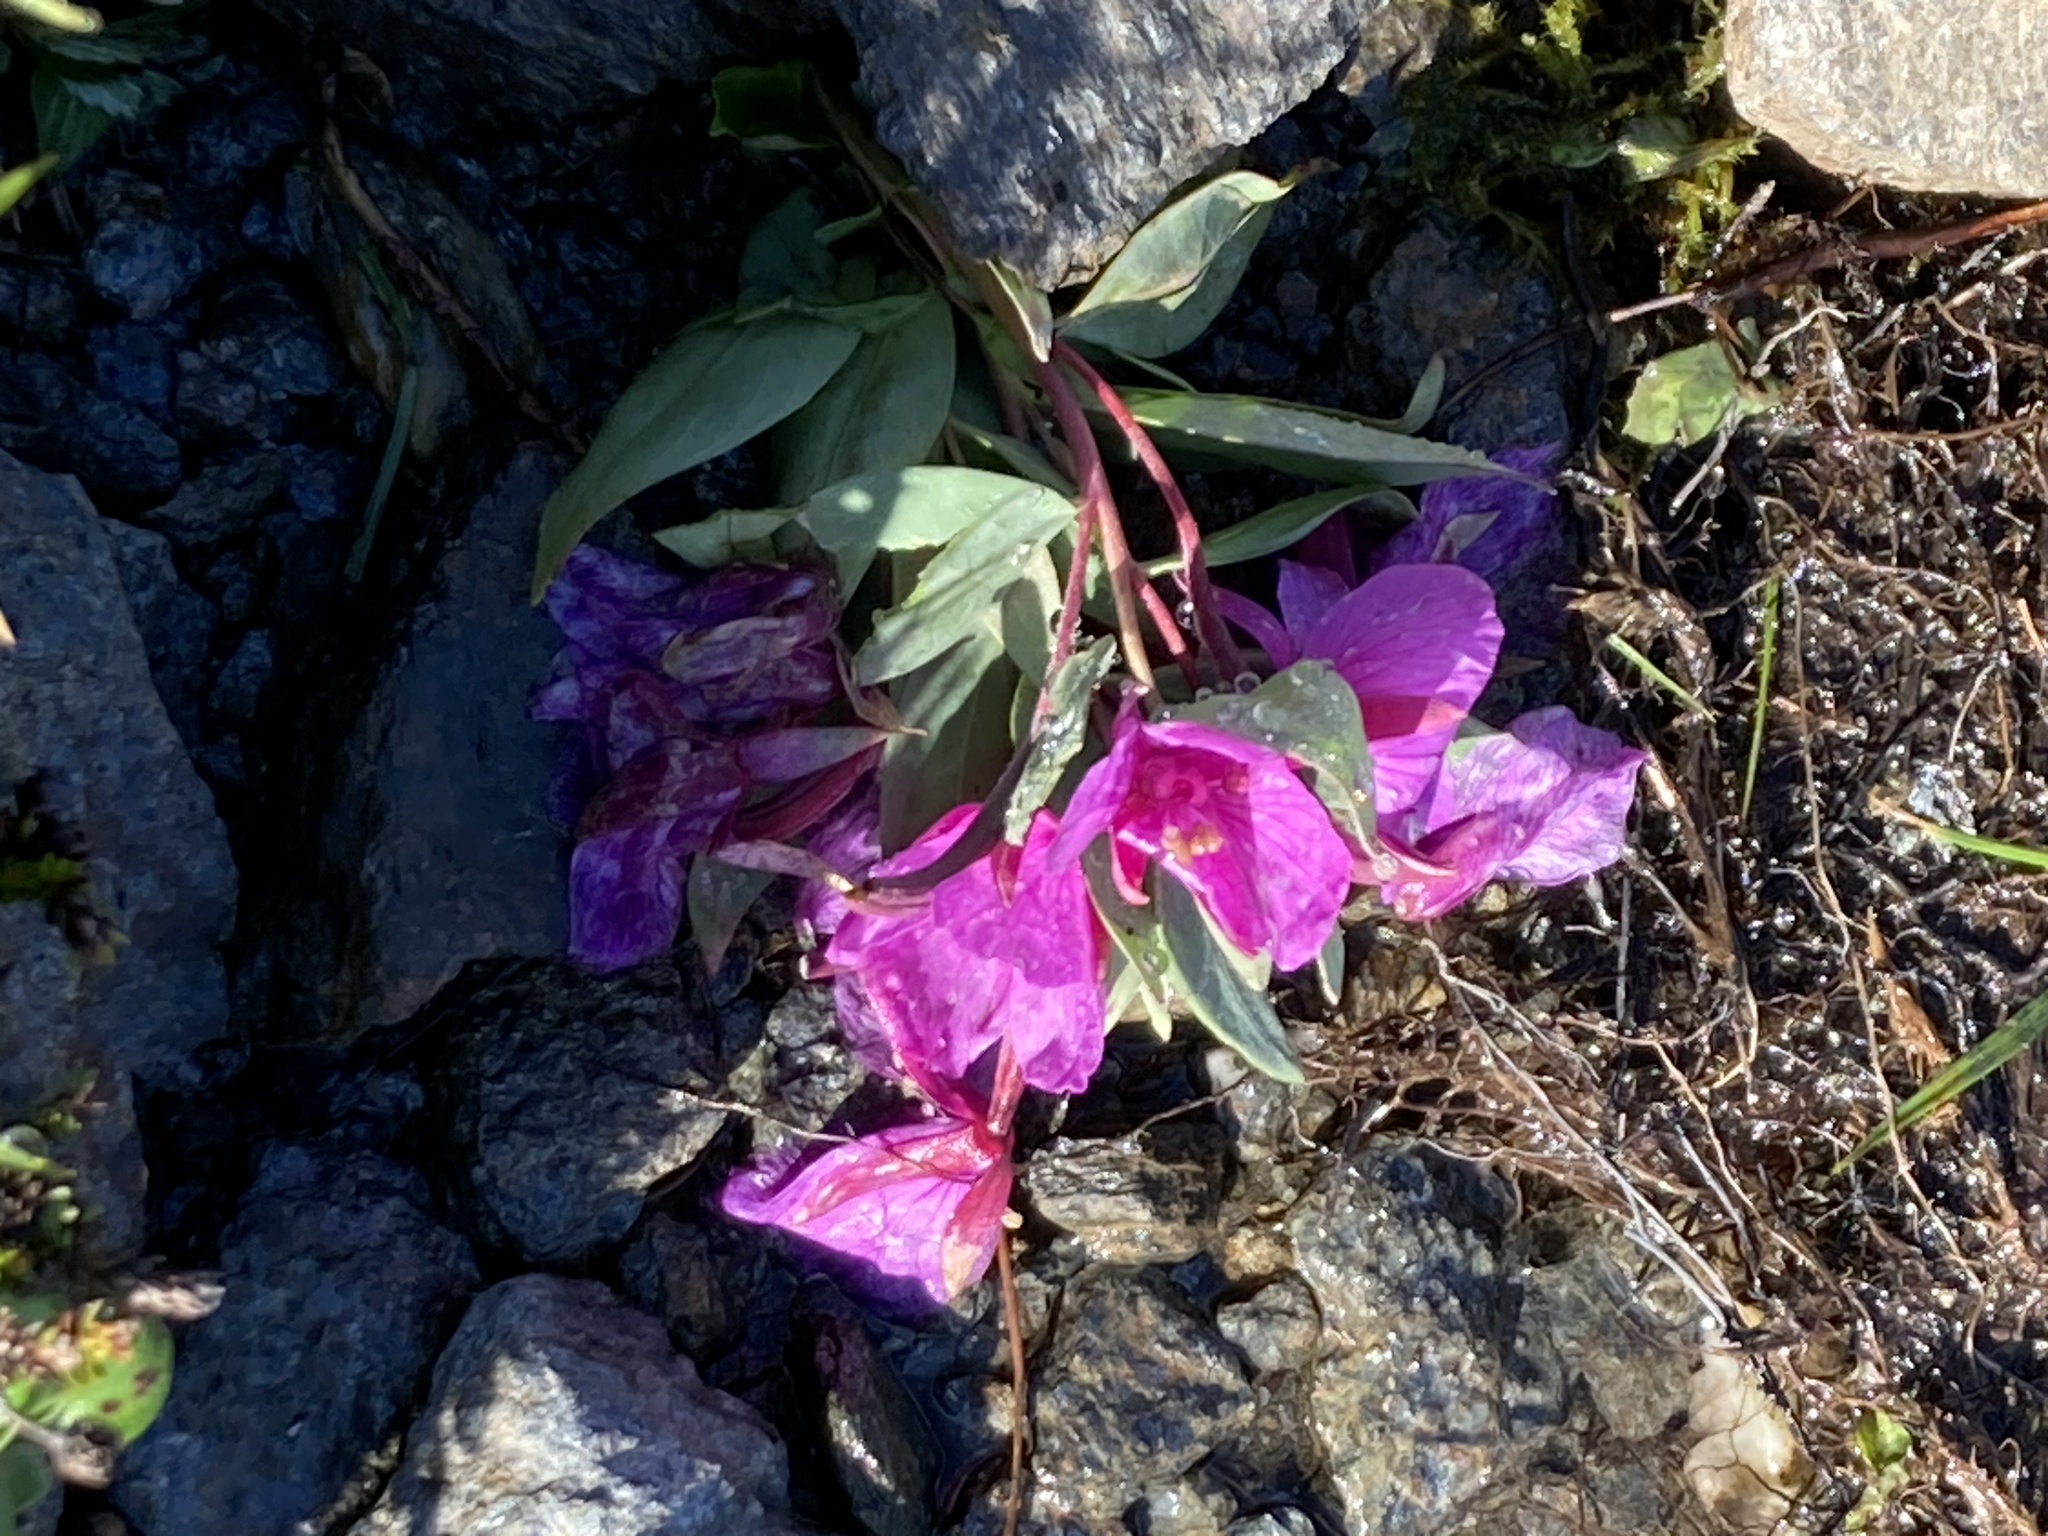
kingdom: Plantae
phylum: Tracheophyta
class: Magnoliopsida
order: Myrtales
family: Onagraceae
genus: Chamaenerion
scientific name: Chamaenerion latifolium
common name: Dwarf fireweed
